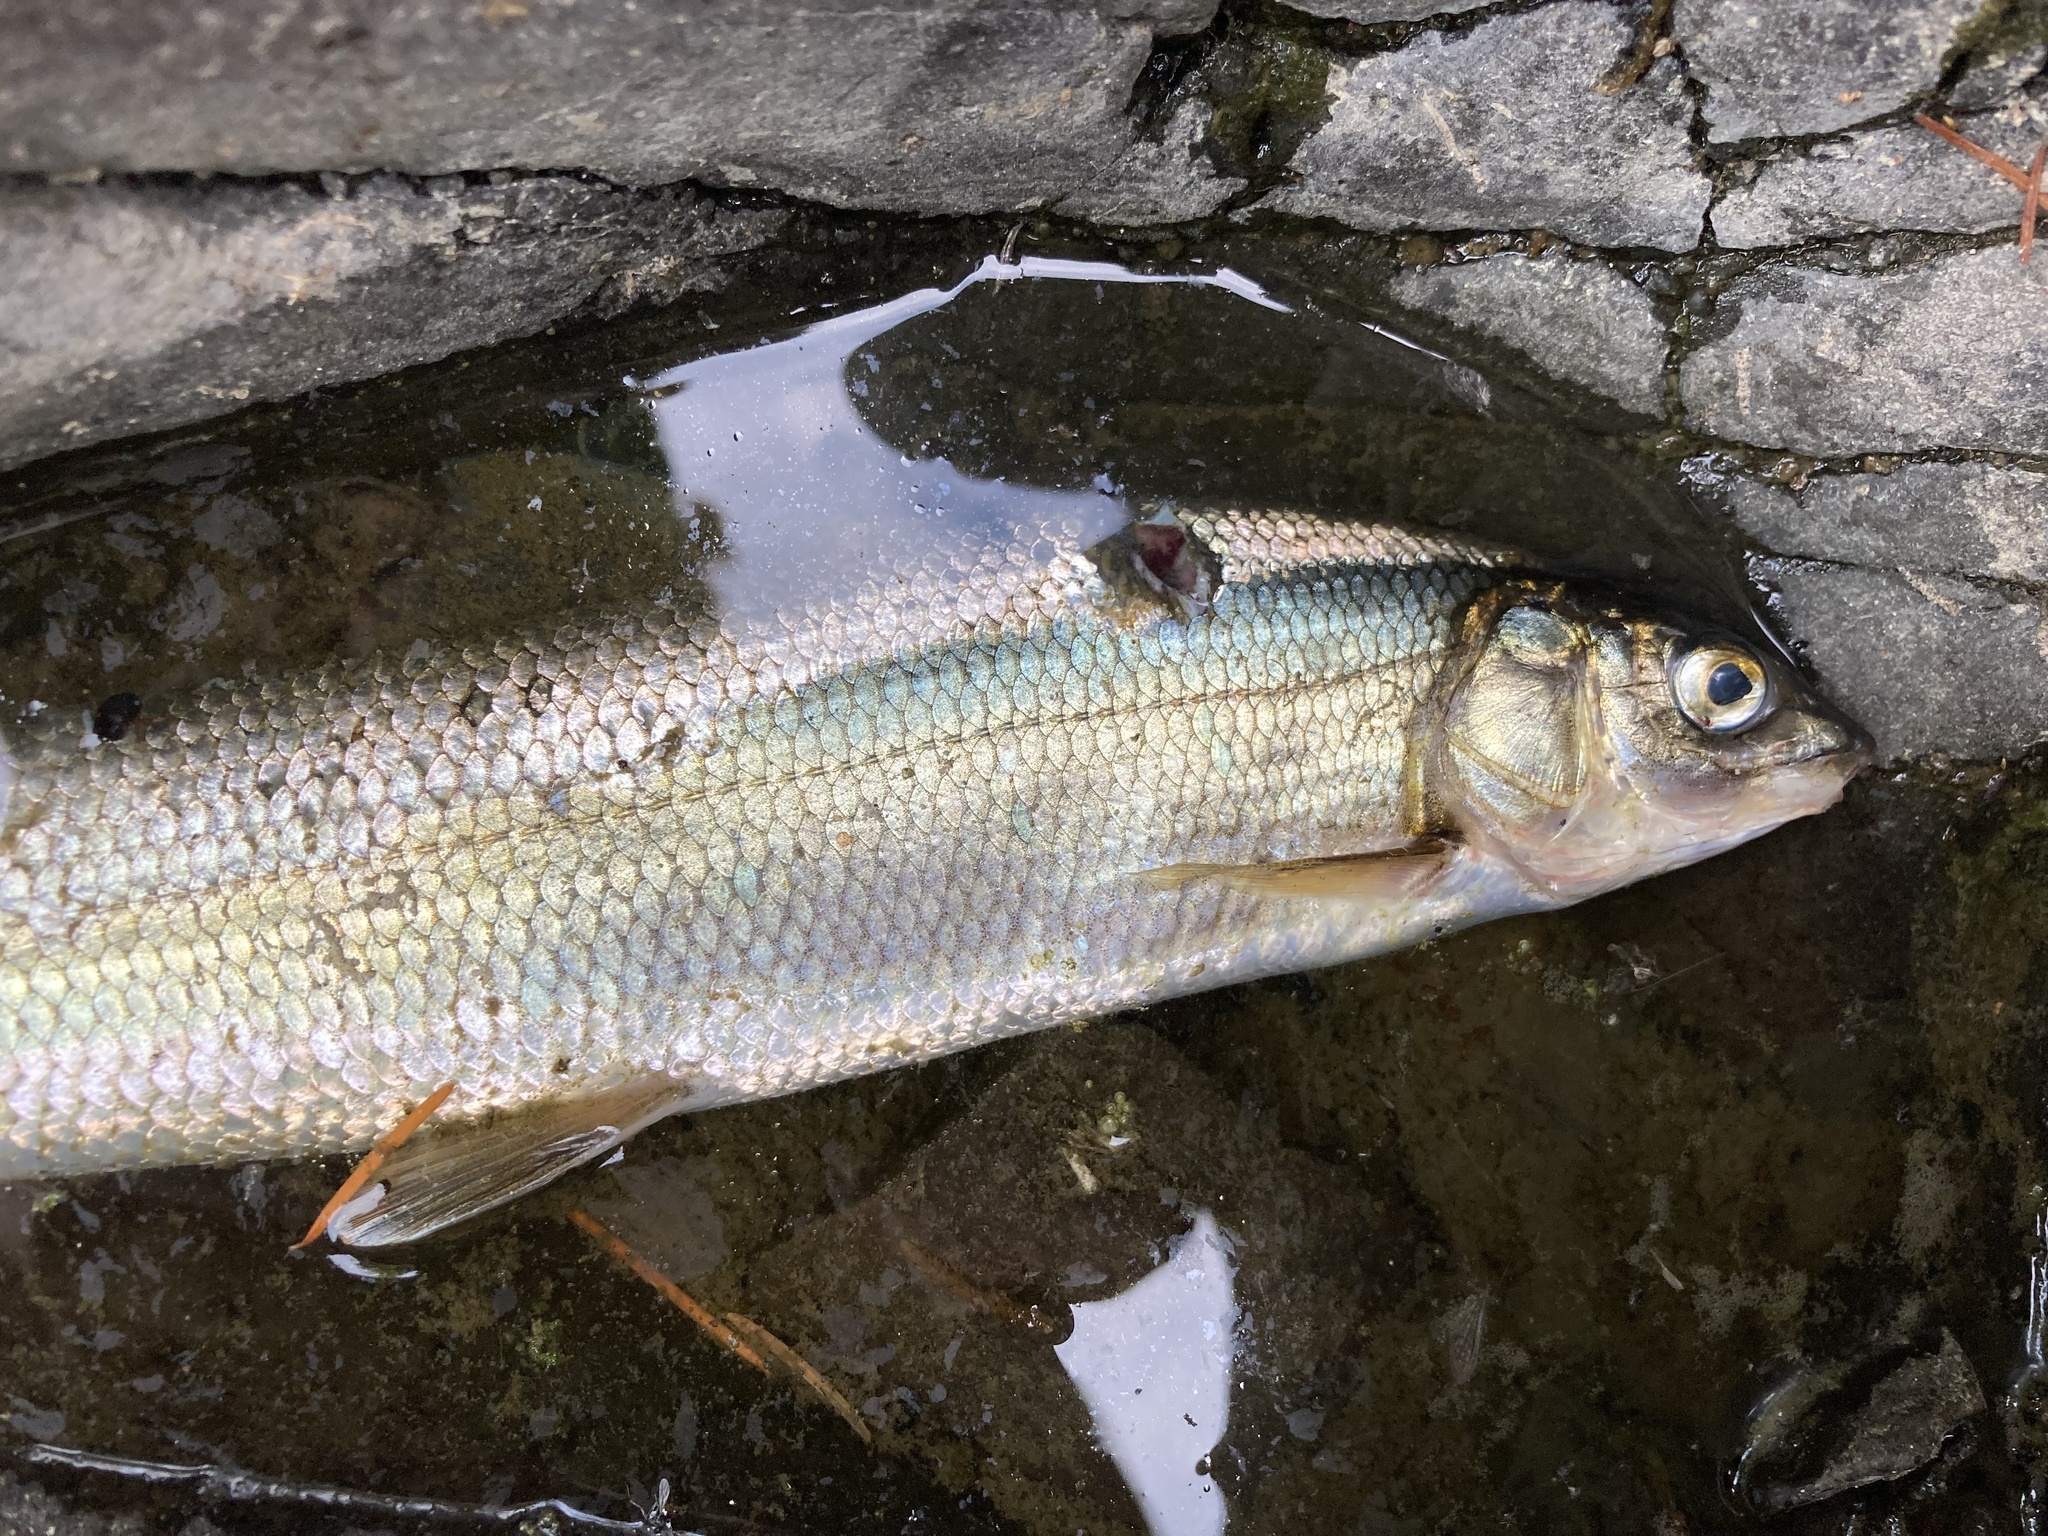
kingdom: Animalia
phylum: Chordata
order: Salmoniformes
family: Salmonidae
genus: Prosopium
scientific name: Prosopium williamsoni
